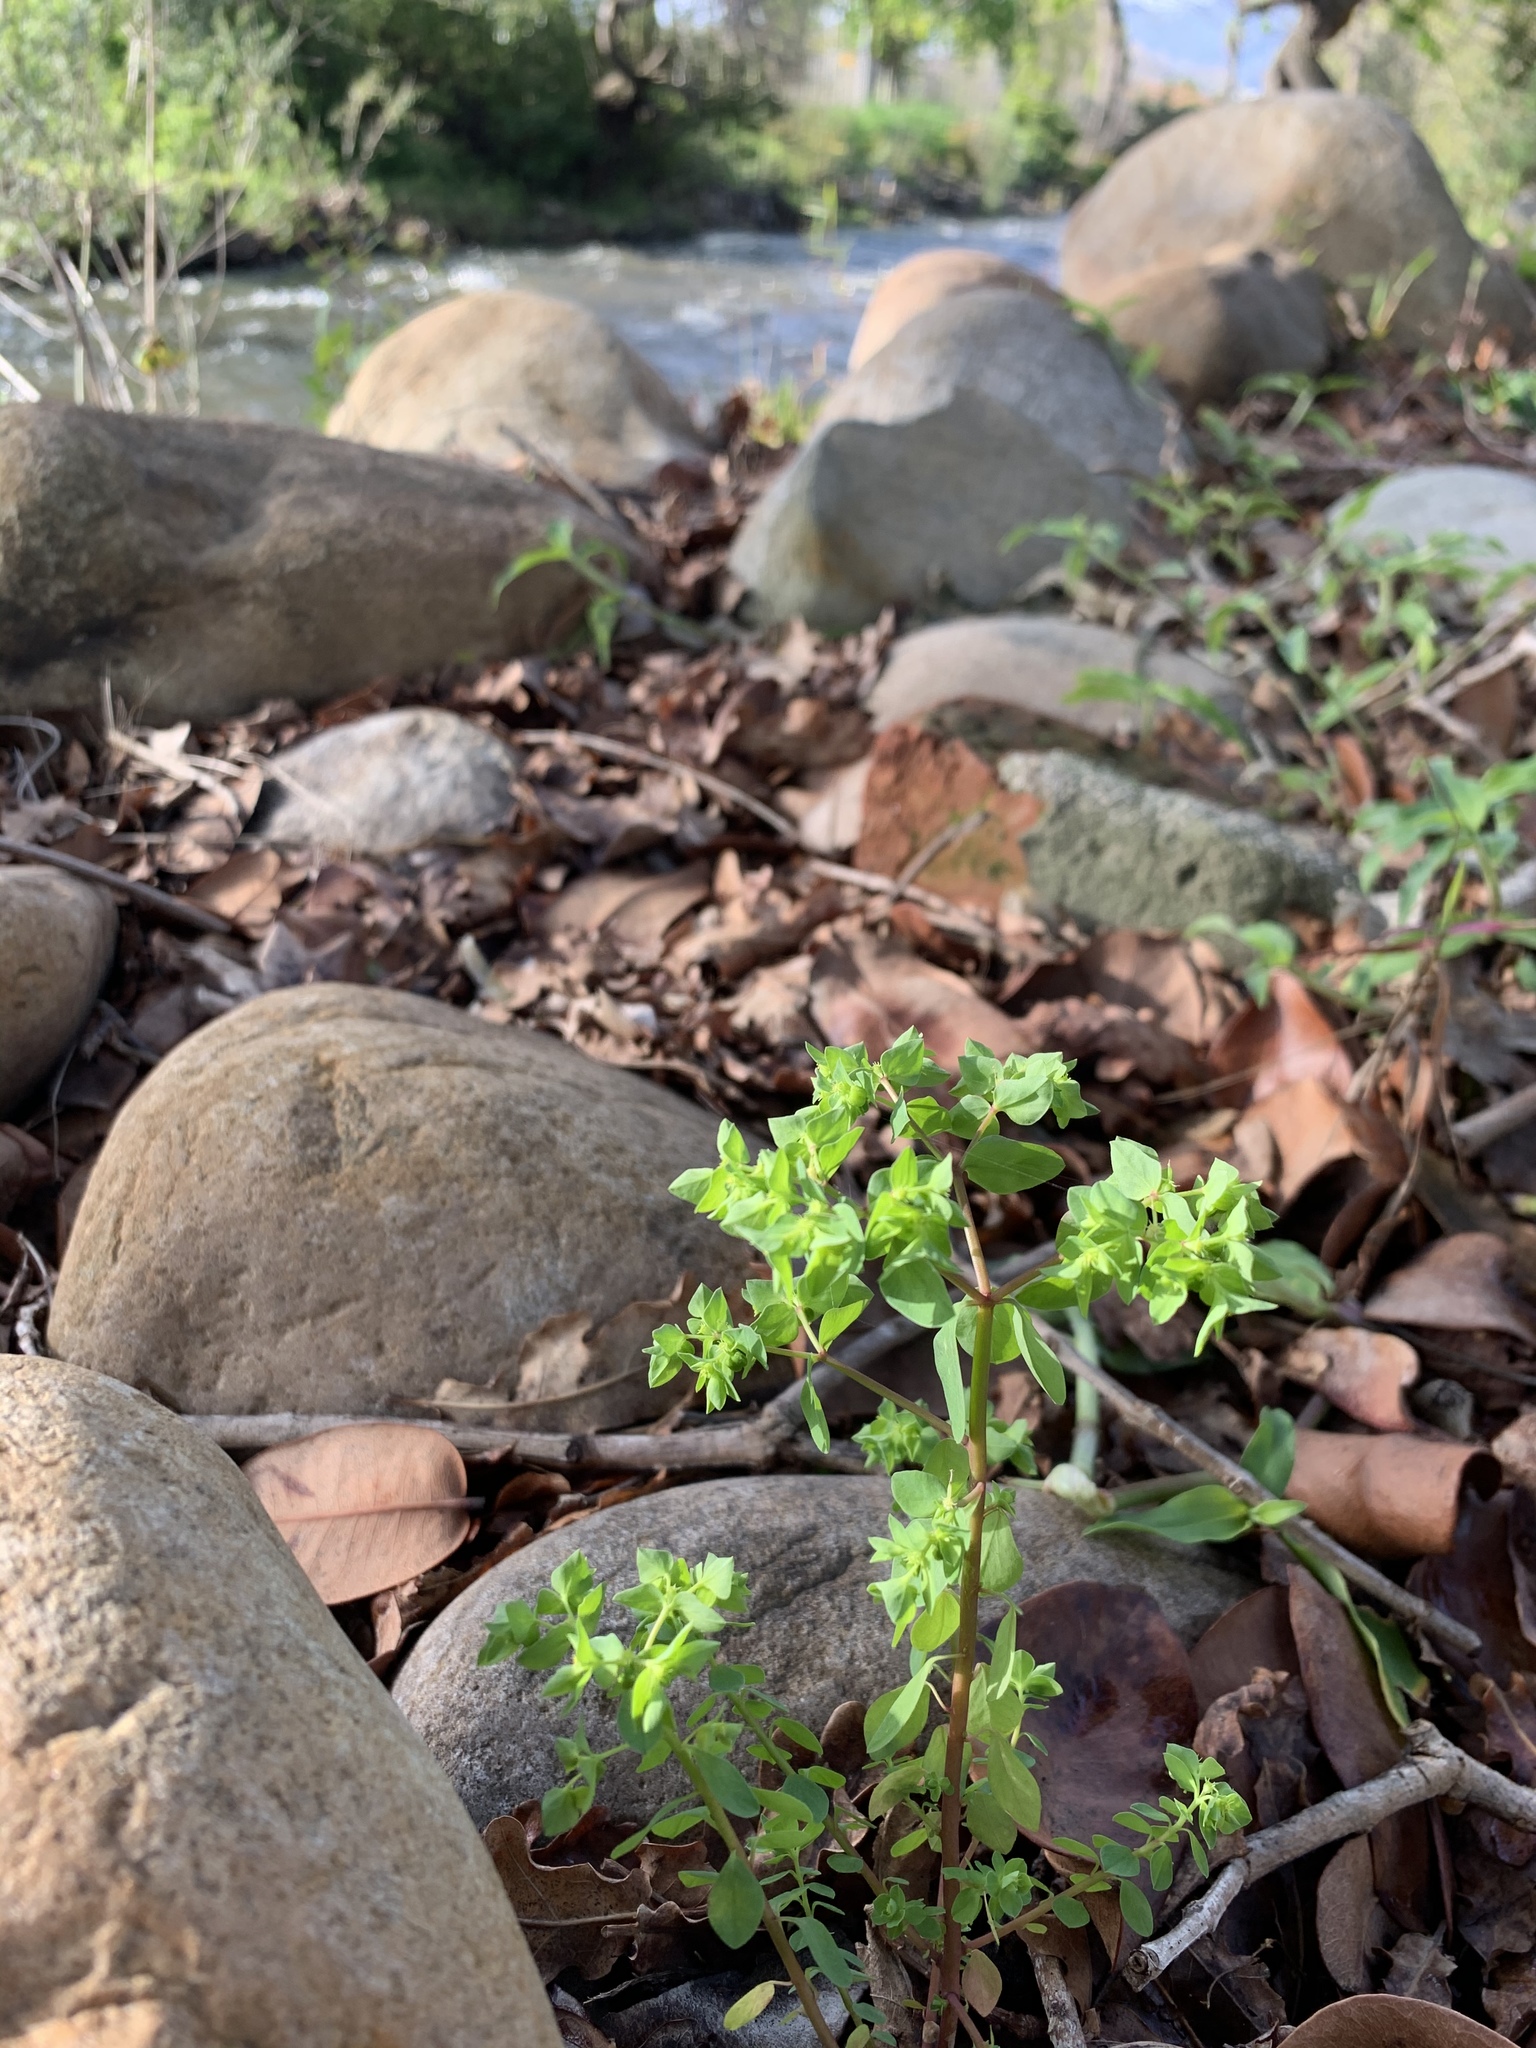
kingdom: Plantae
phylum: Tracheophyta
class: Magnoliopsida
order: Malpighiales
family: Euphorbiaceae
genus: Euphorbia
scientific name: Euphorbia peplus
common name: Petty spurge
